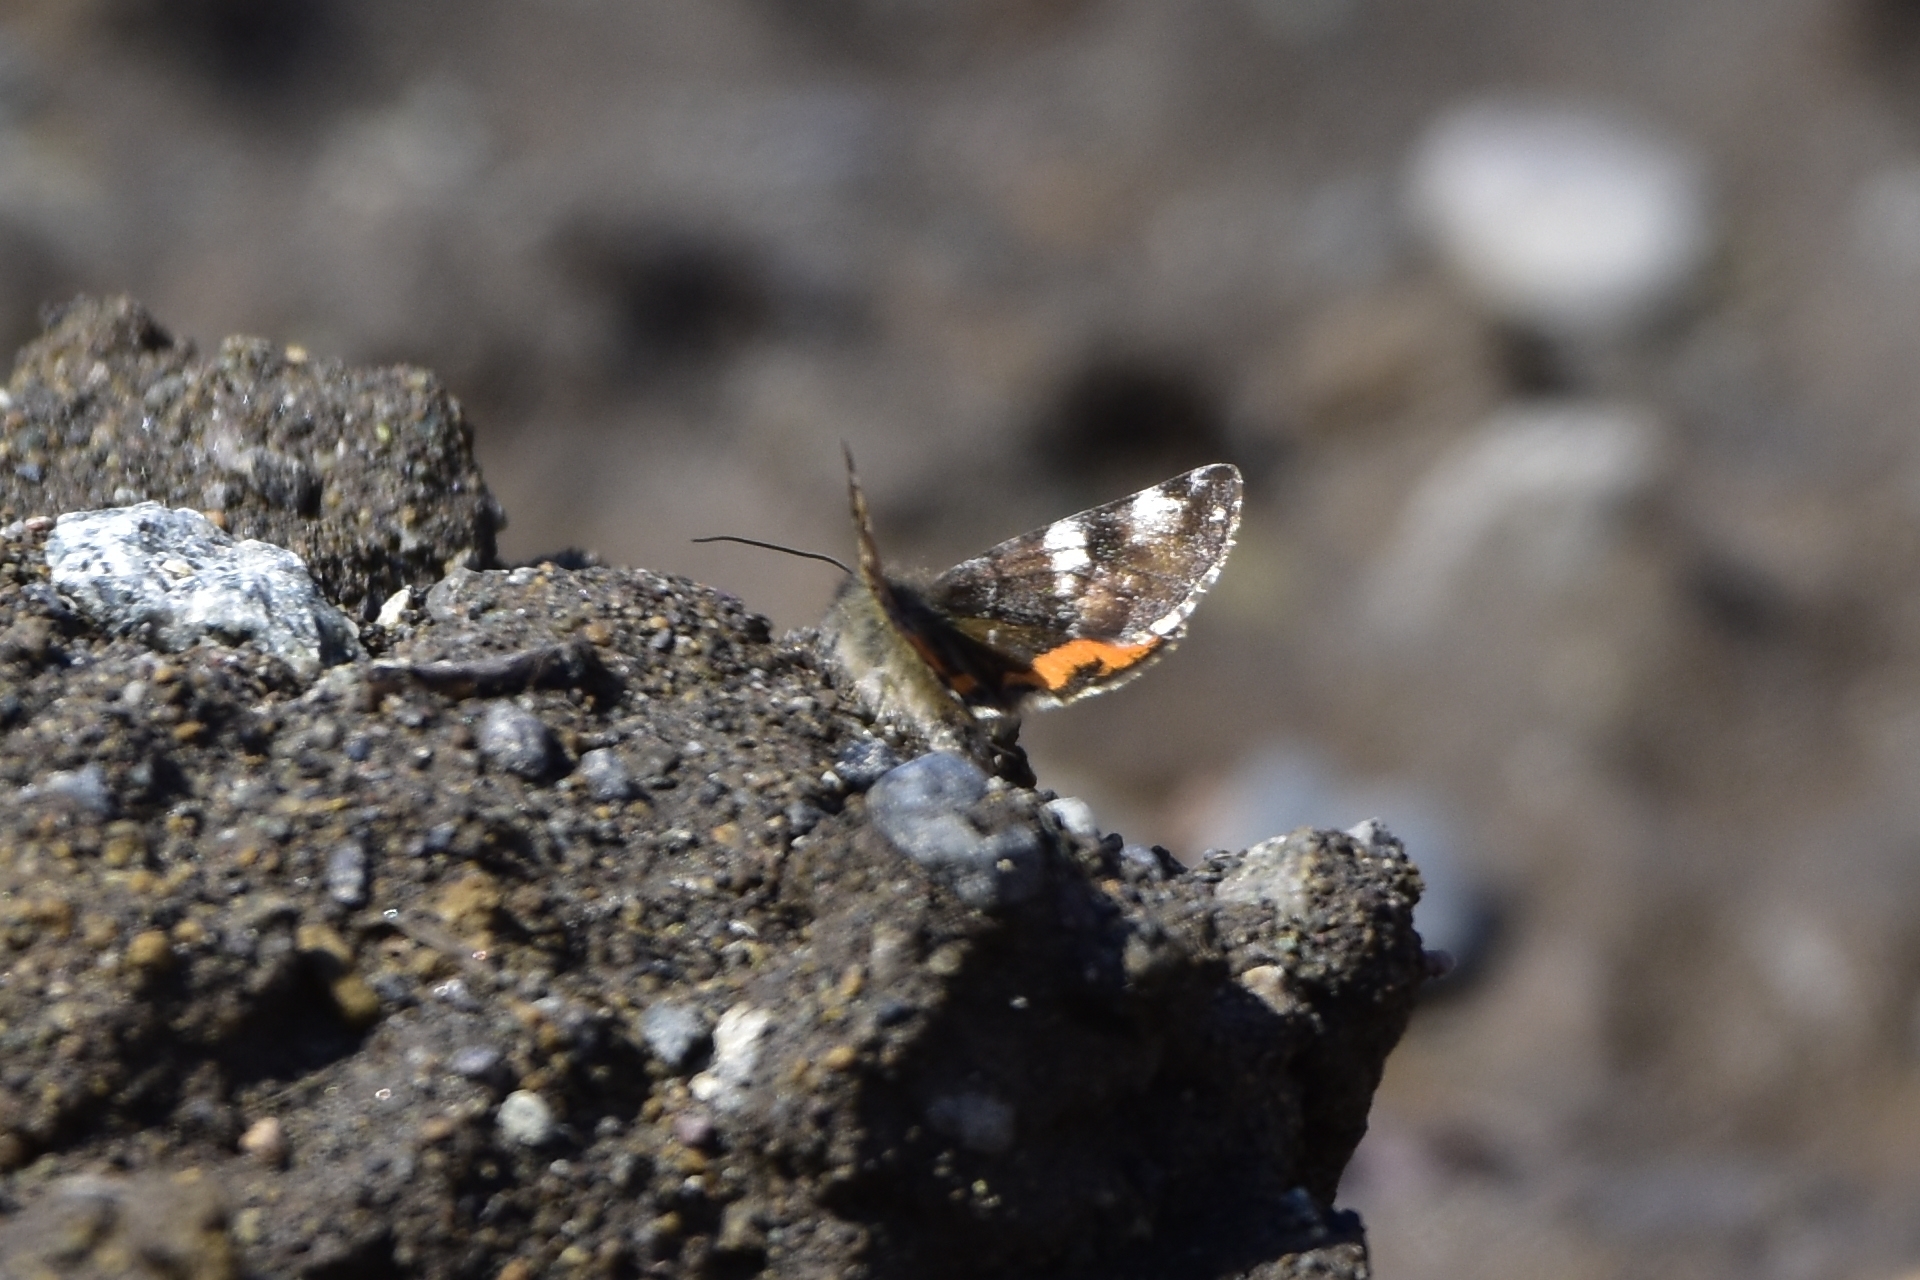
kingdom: Animalia
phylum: Arthropoda
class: Insecta
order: Lepidoptera
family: Geometridae
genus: Archiearis
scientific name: Archiearis parthenias
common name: Orange underwing
